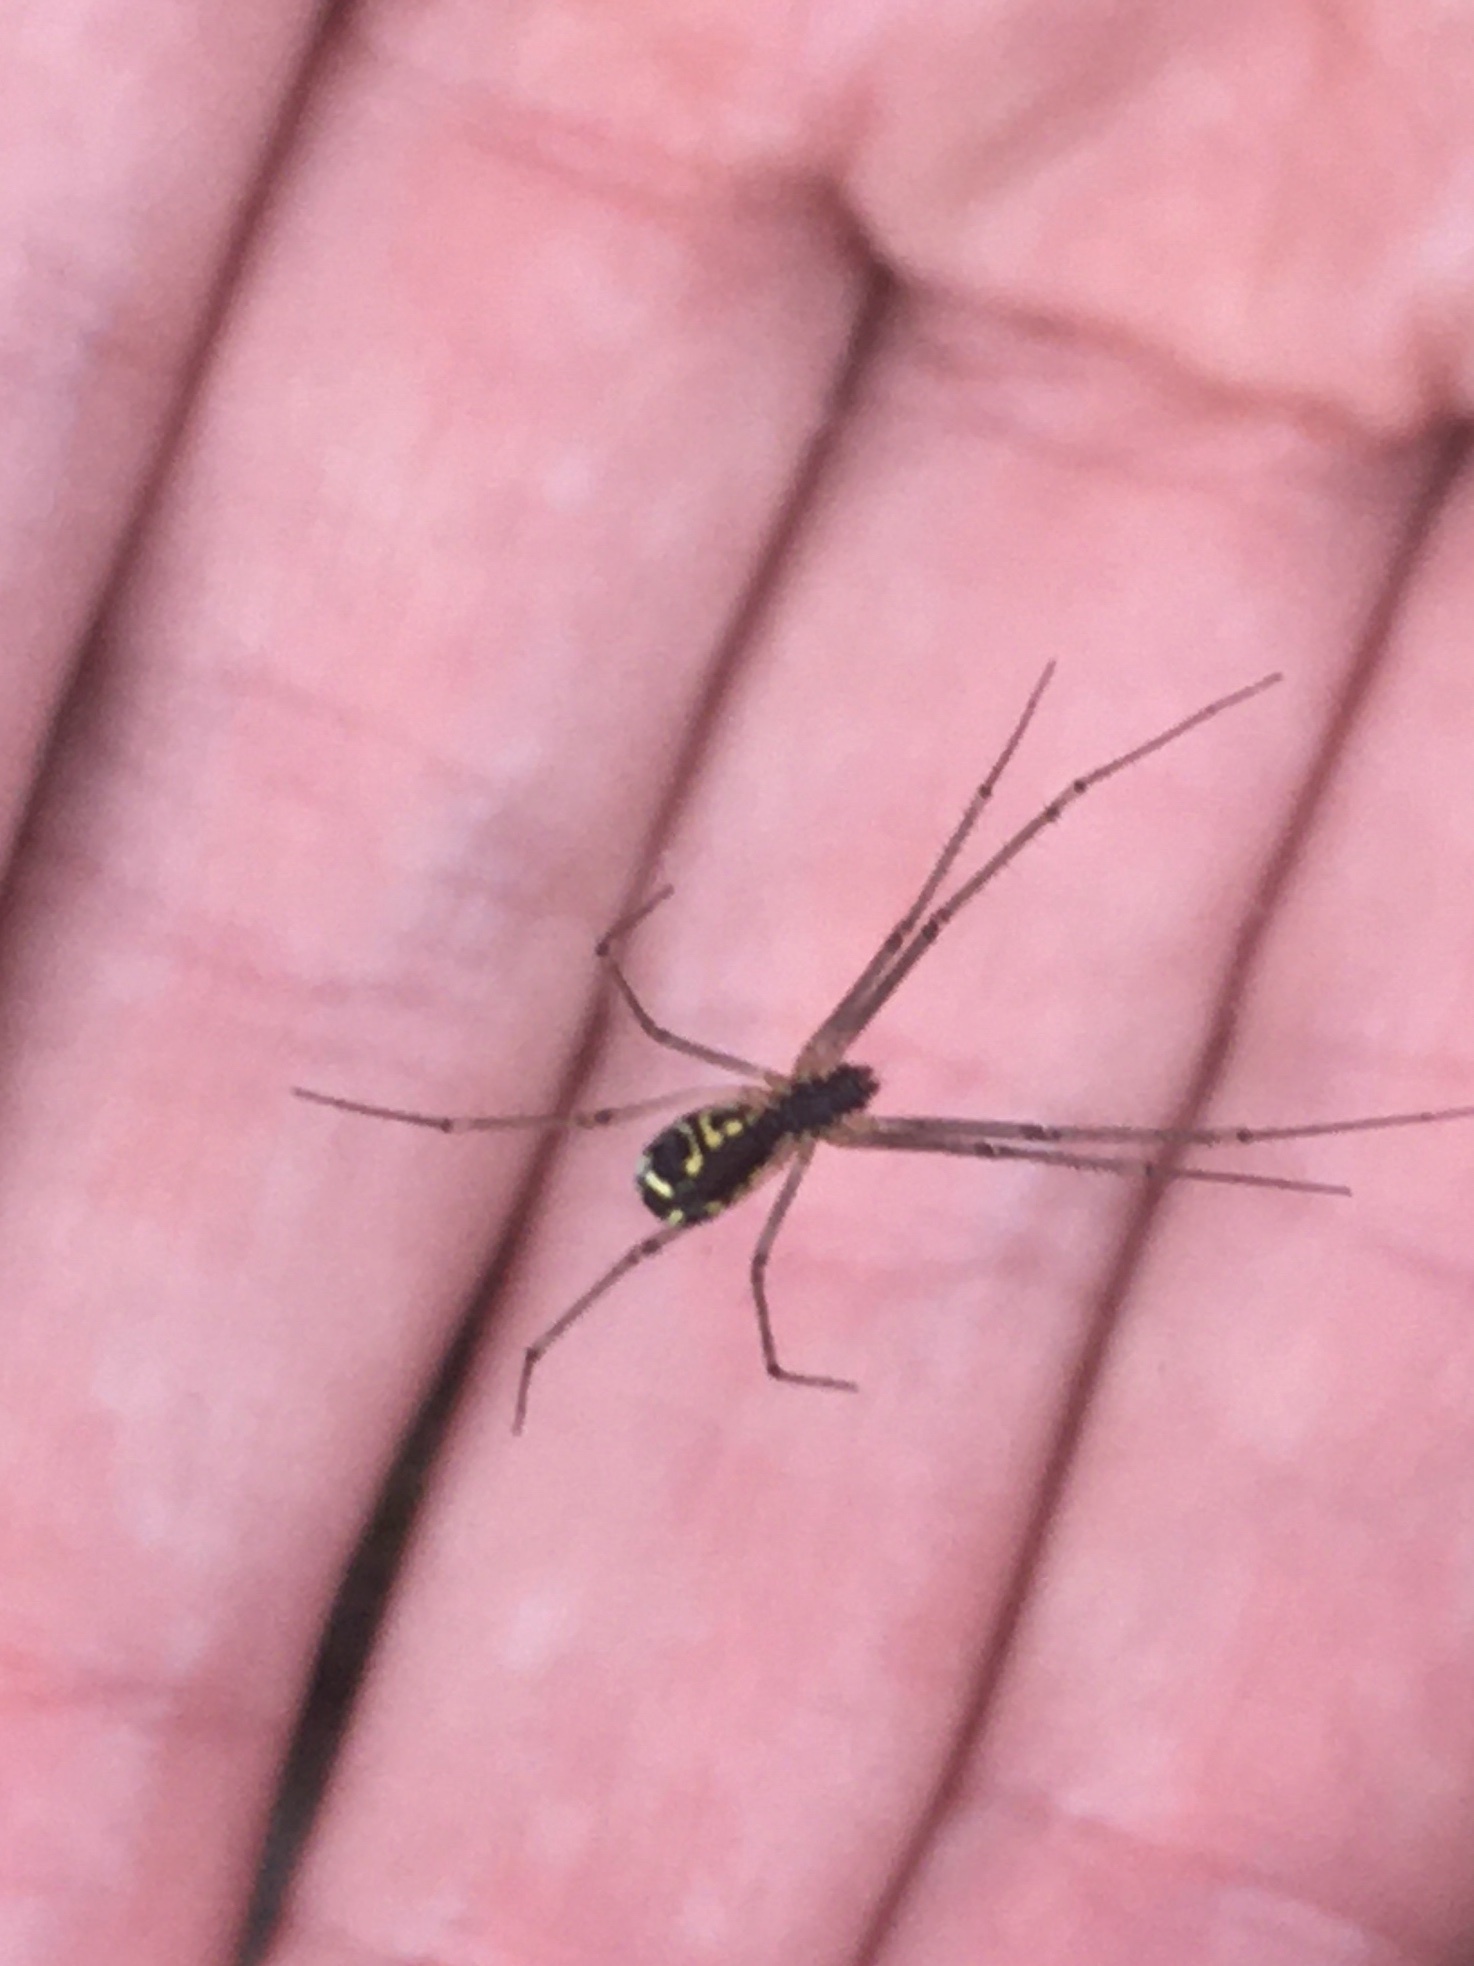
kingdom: Animalia
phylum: Arthropoda
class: Arachnida
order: Araneae
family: Linyphiidae
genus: Neriene
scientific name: Neriene radiata
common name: Filmy dome spider
